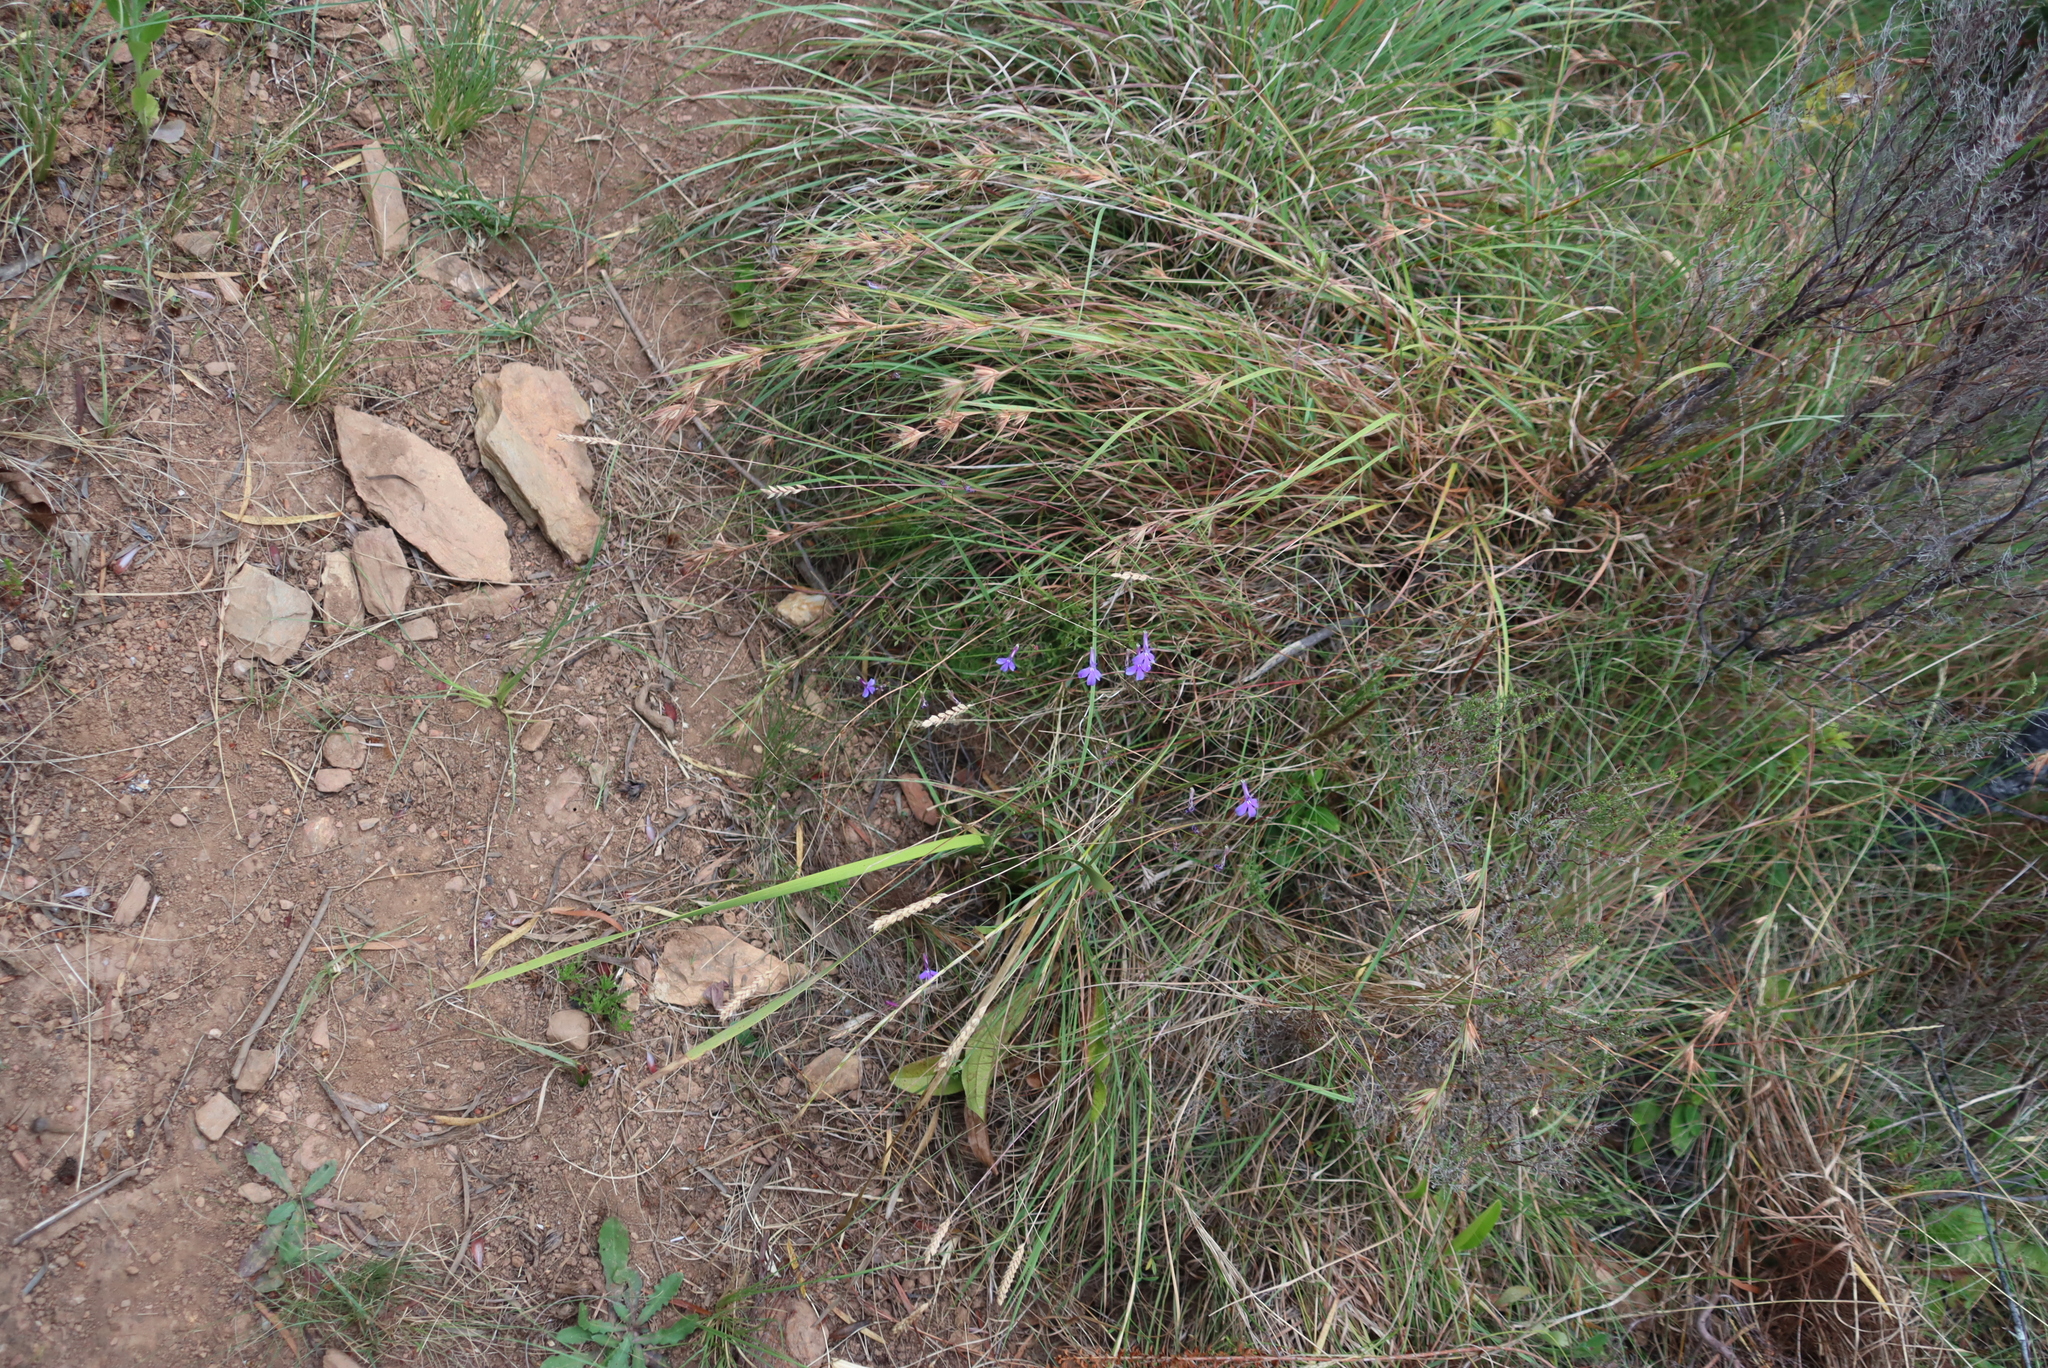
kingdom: Plantae
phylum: Tracheophyta
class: Liliopsida
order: Poales
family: Poaceae
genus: Themeda
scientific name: Themeda triandra
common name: Kangaroo grass
